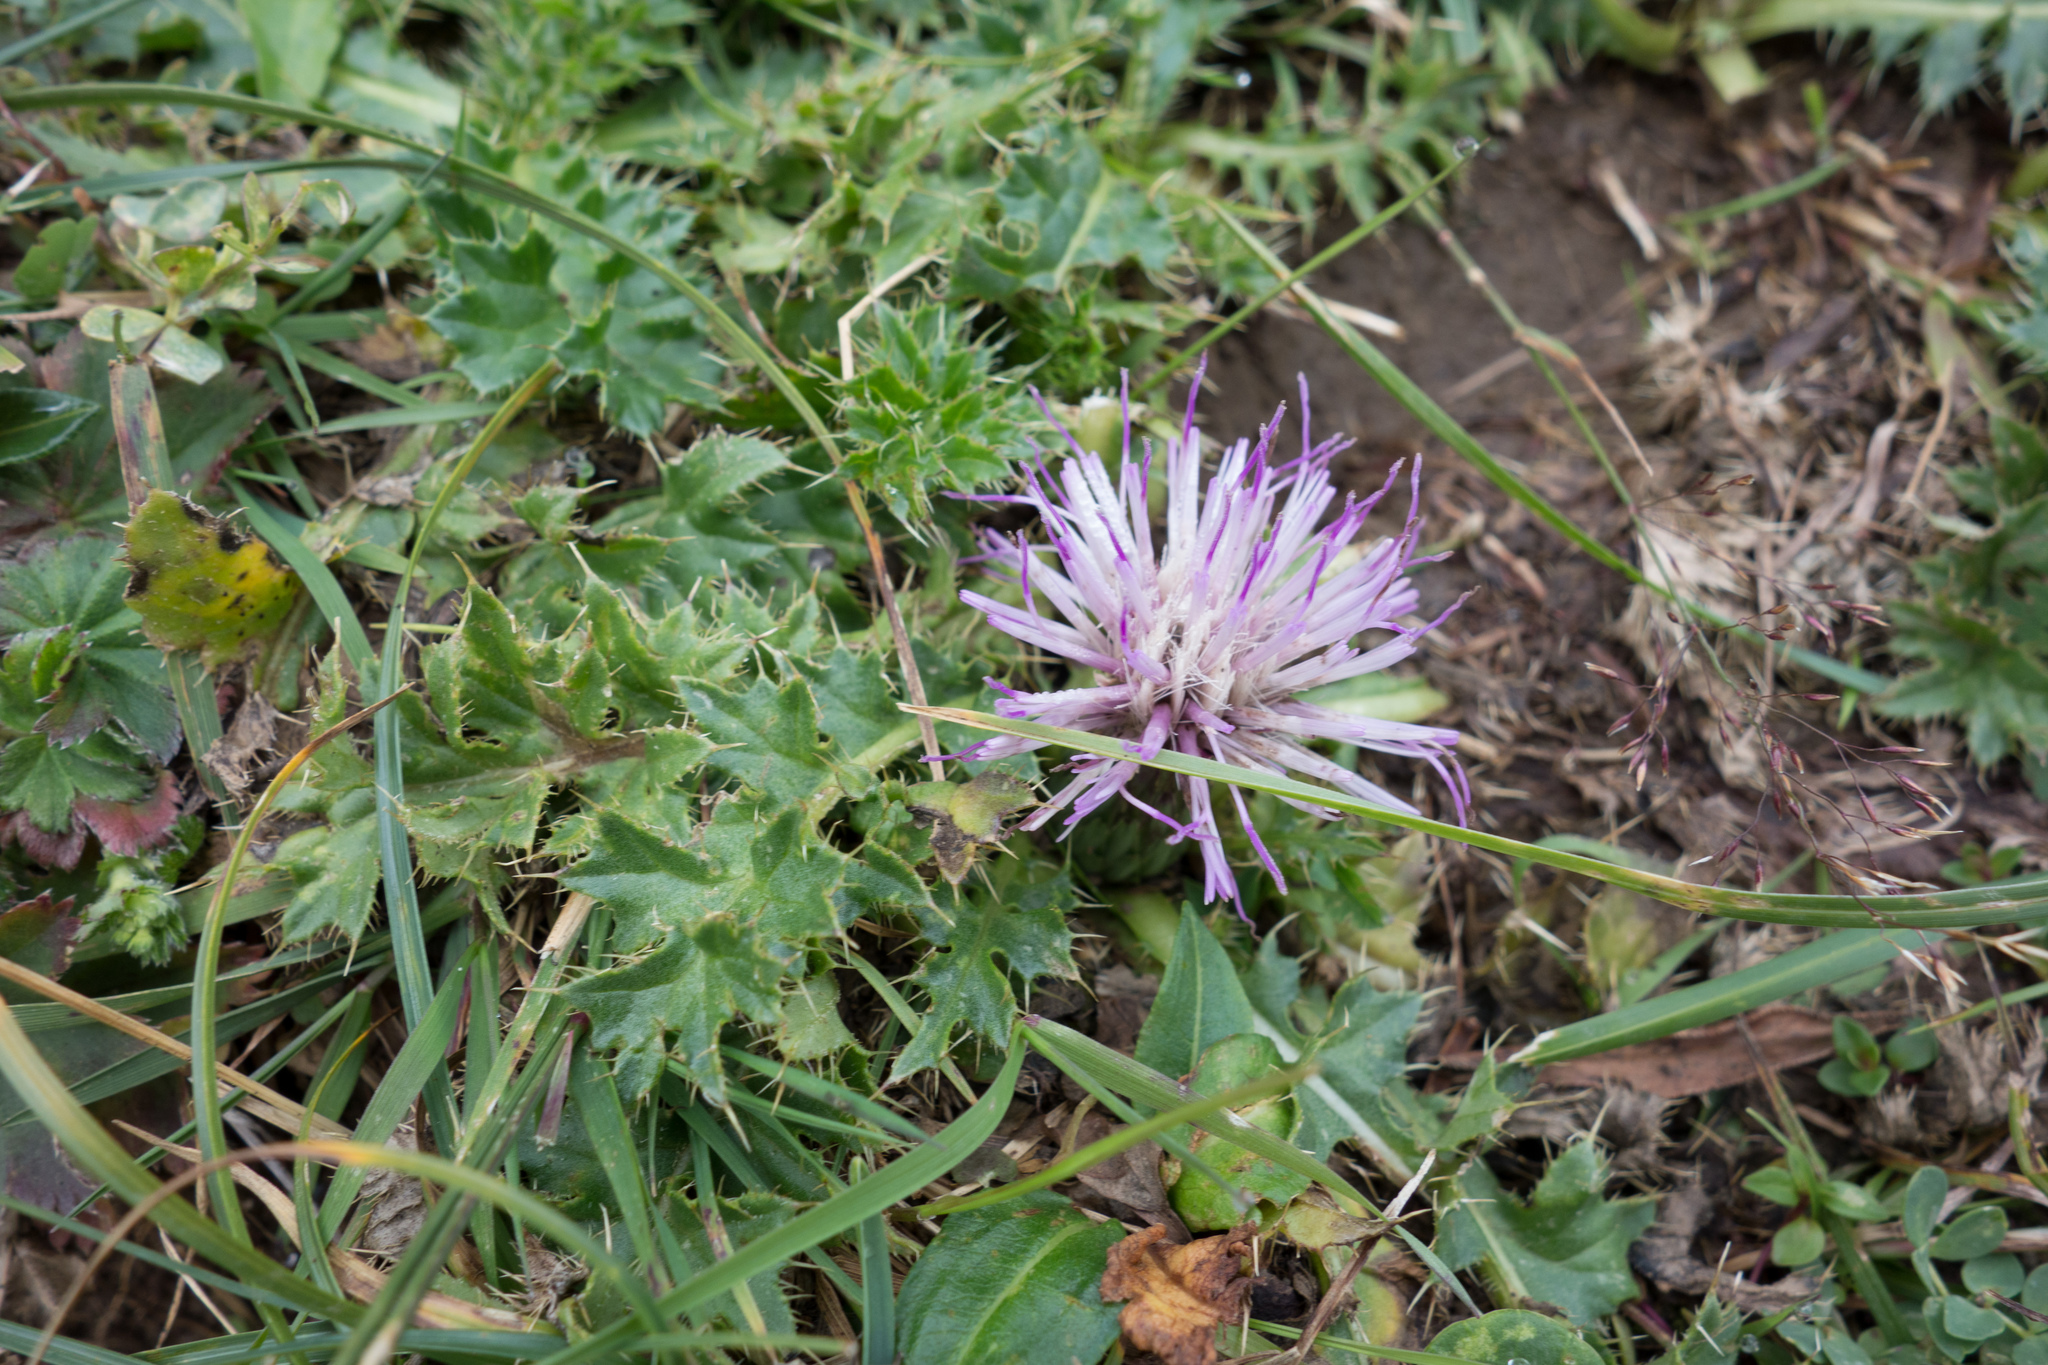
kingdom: Plantae
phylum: Tracheophyta
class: Magnoliopsida
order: Asterales
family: Asteraceae
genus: Cirsium
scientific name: Cirsium acaulon
